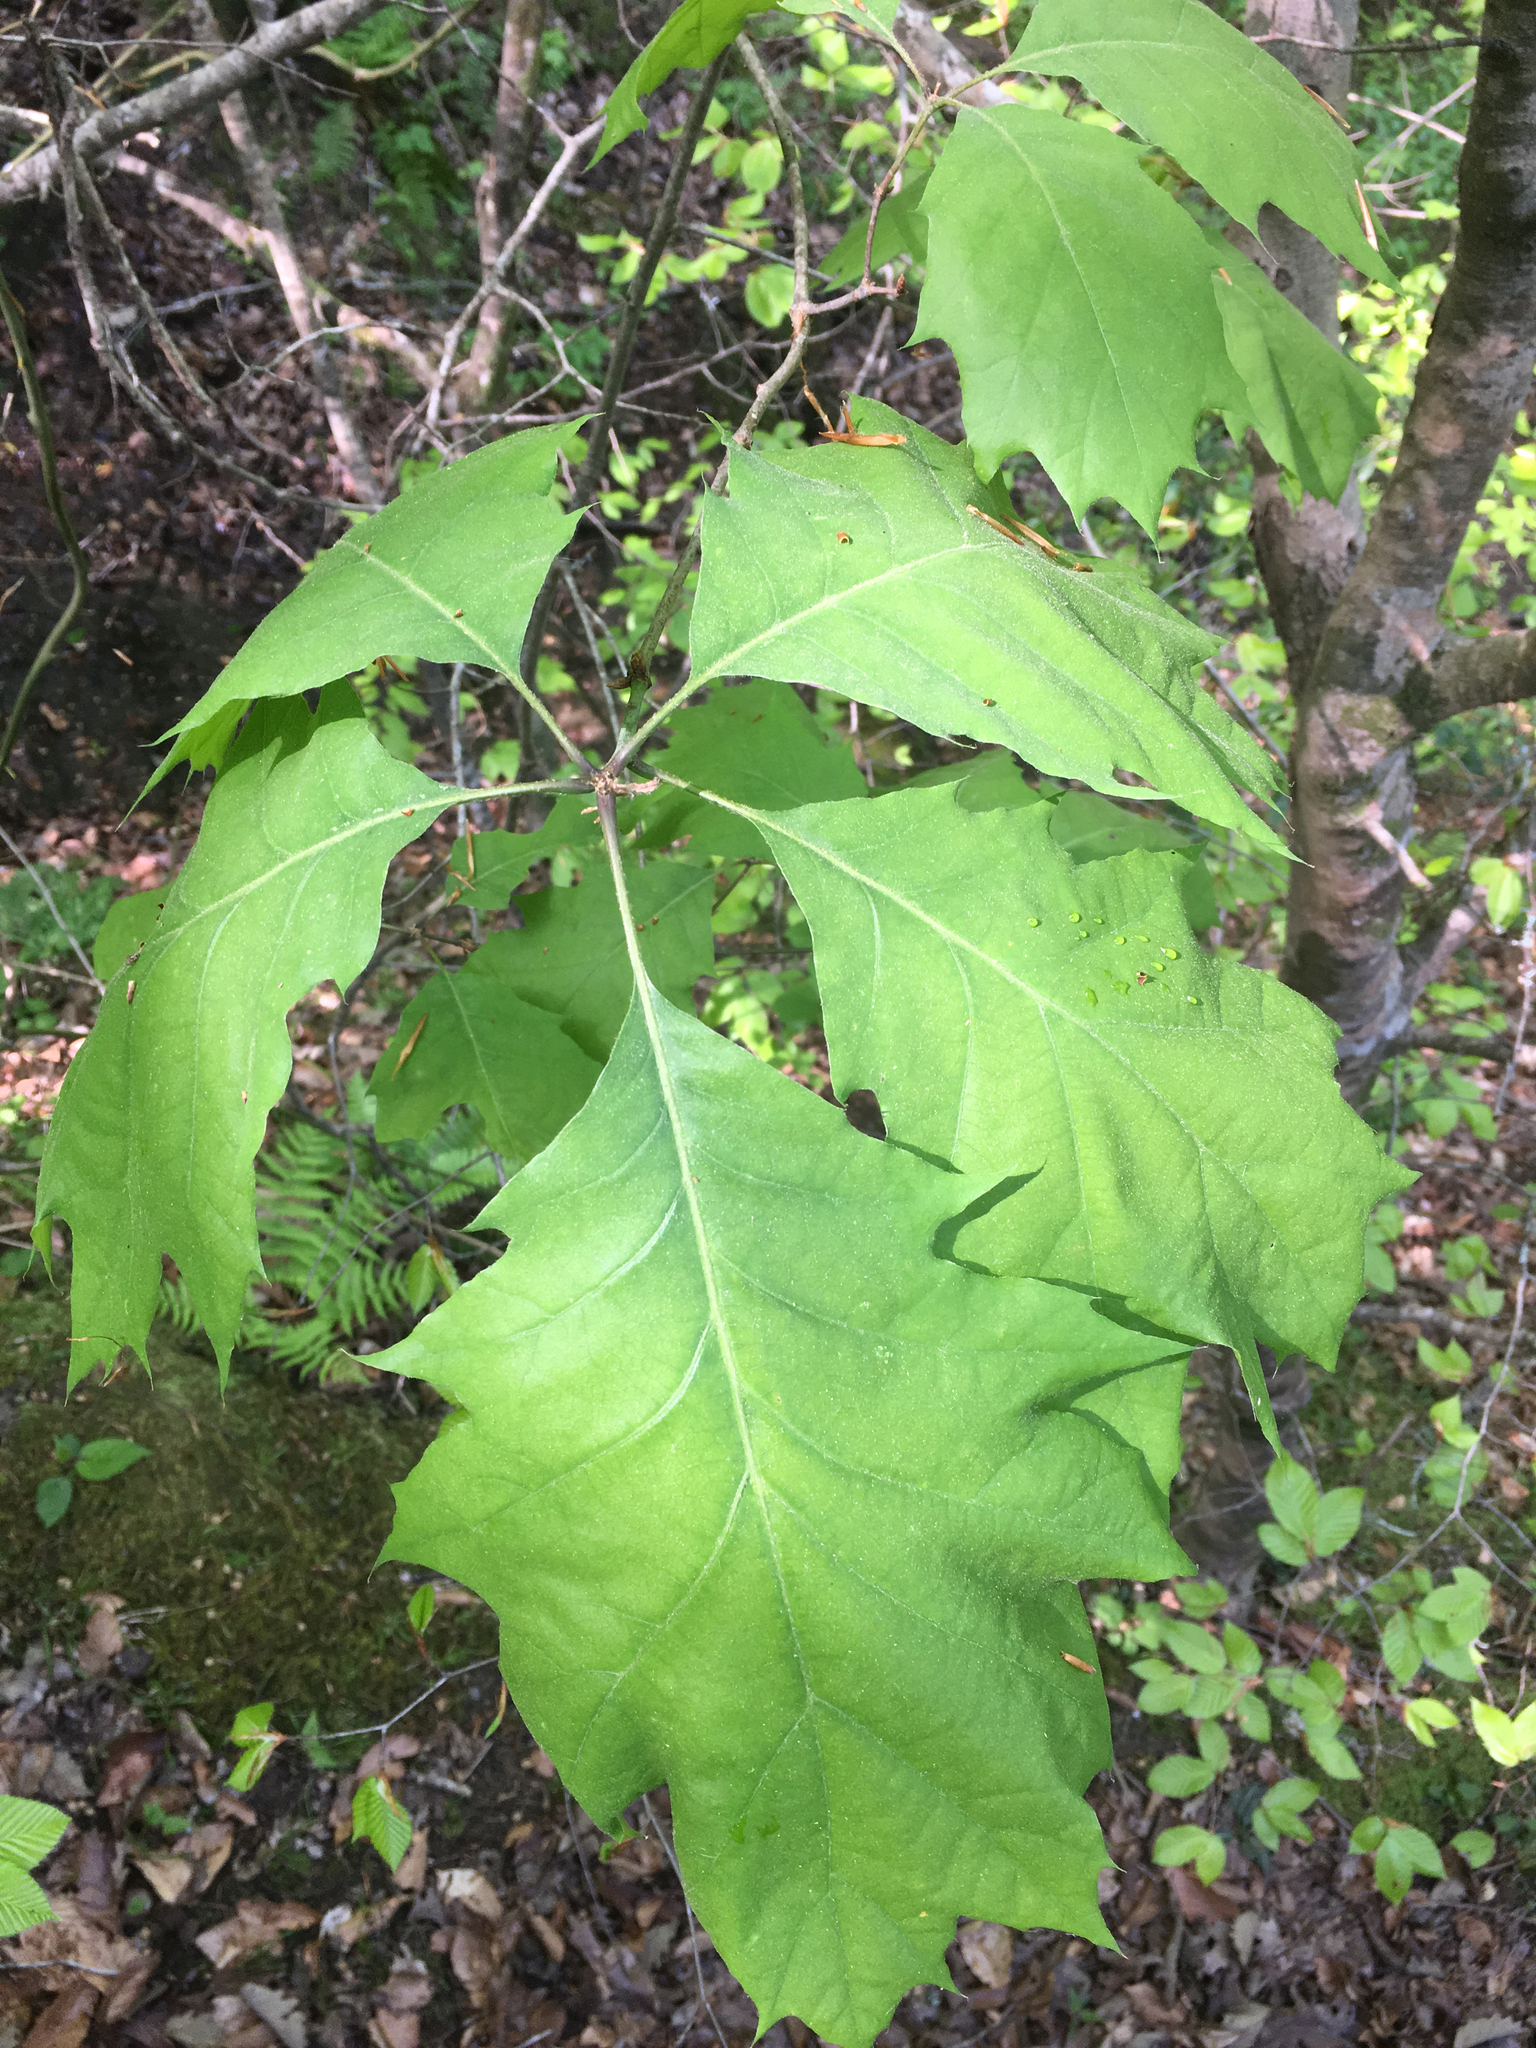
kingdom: Plantae
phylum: Tracheophyta
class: Magnoliopsida
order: Fagales
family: Fagaceae
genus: Quercus
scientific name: Quercus rubra
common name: Red oak
